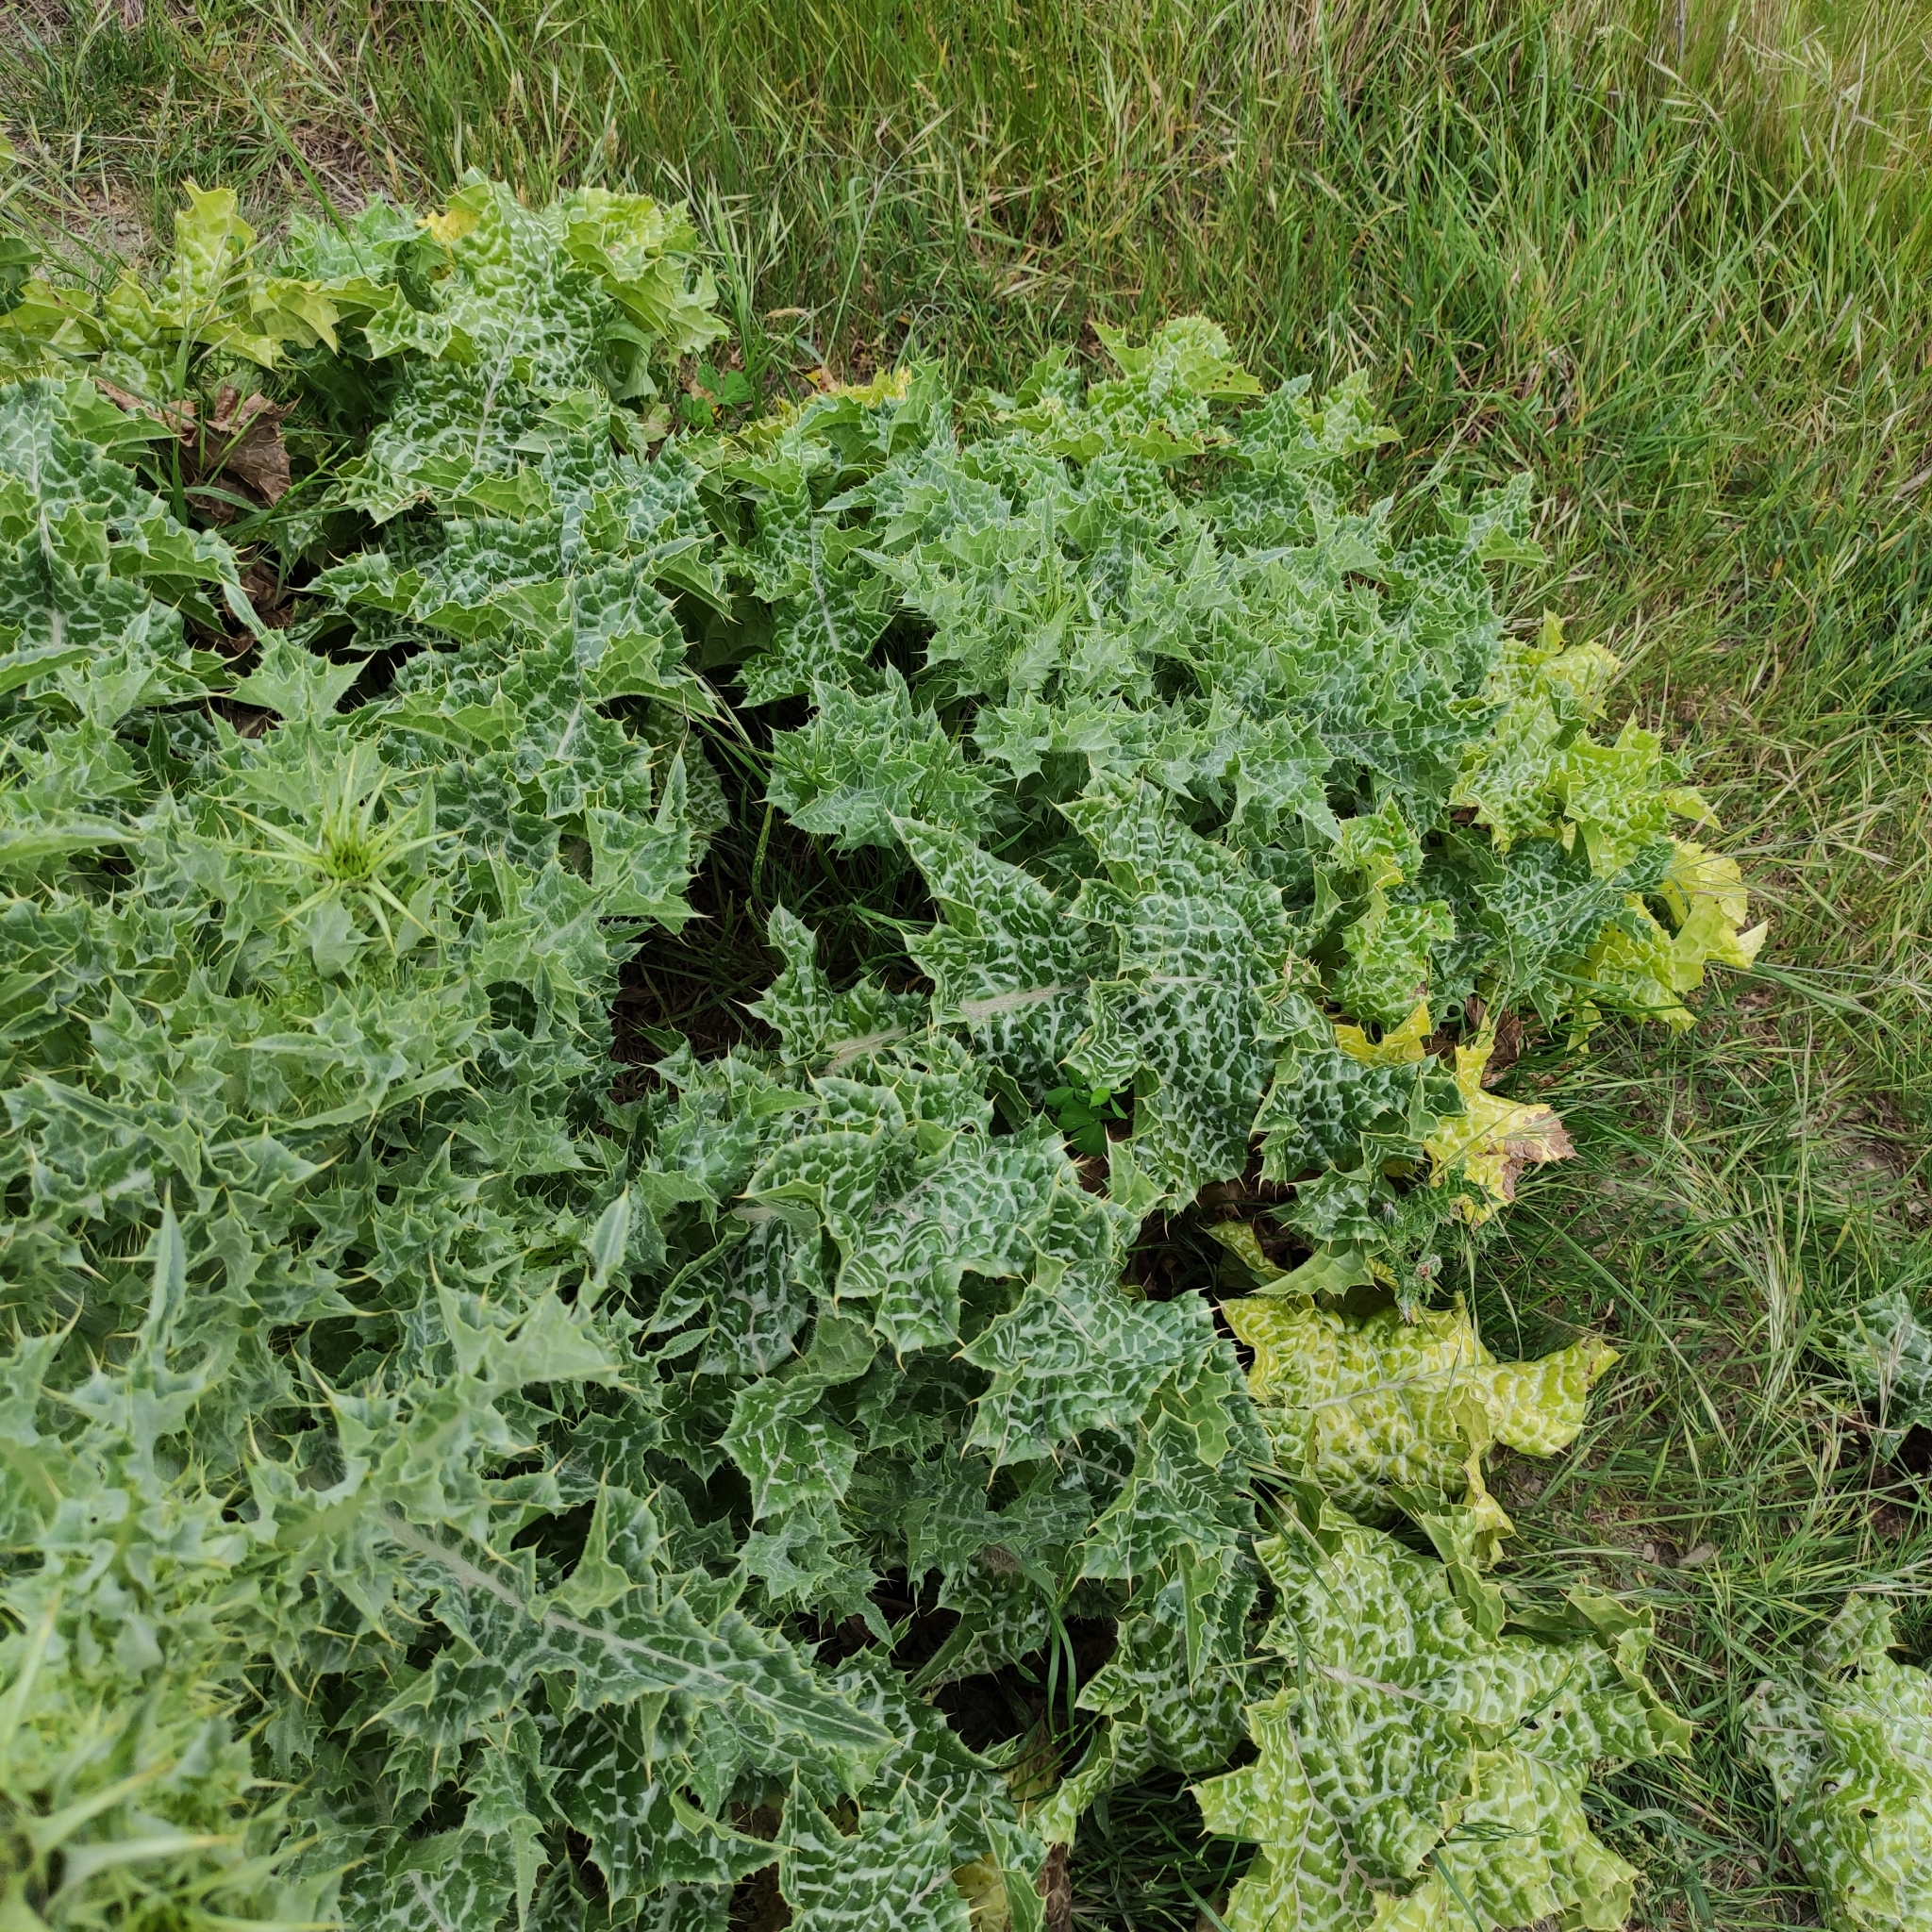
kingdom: Plantae
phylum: Tracheophyta
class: Magnoliopsida
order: Asterales
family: Asteraceae
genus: Silybum
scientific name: Silybum marianum
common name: Milk thistle
